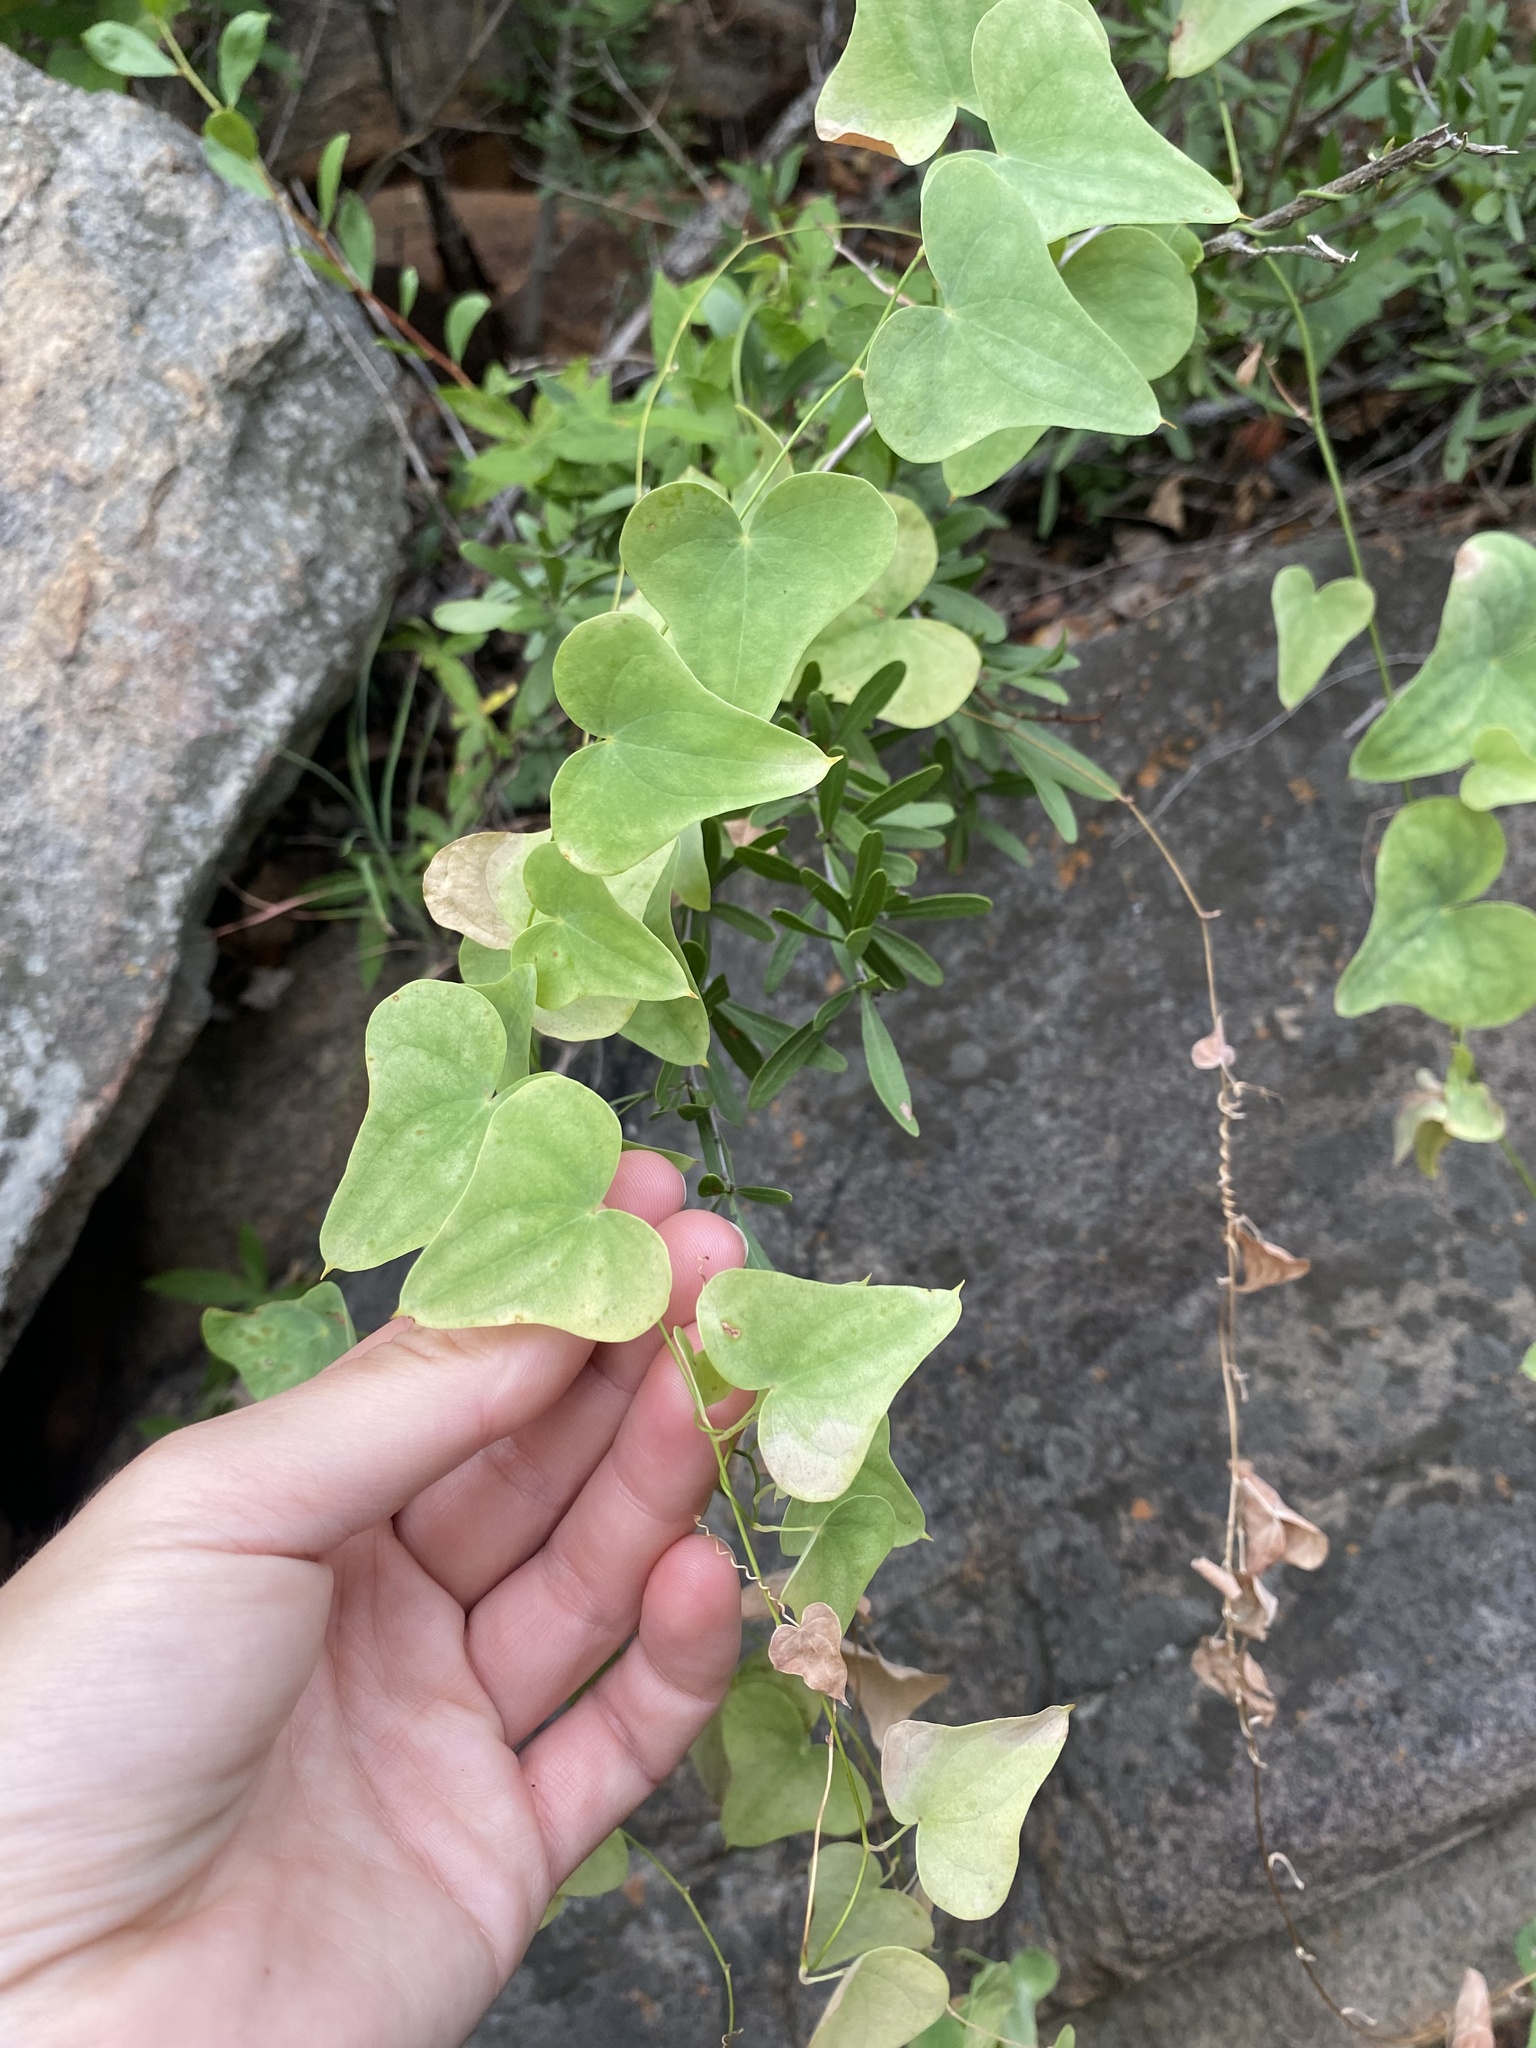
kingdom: Plantae
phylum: Tracheophyta
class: Liliopsida
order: Dioscoreales
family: Dioscoreaceae
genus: Dioscorea
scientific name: Dioscorea sylvatica
